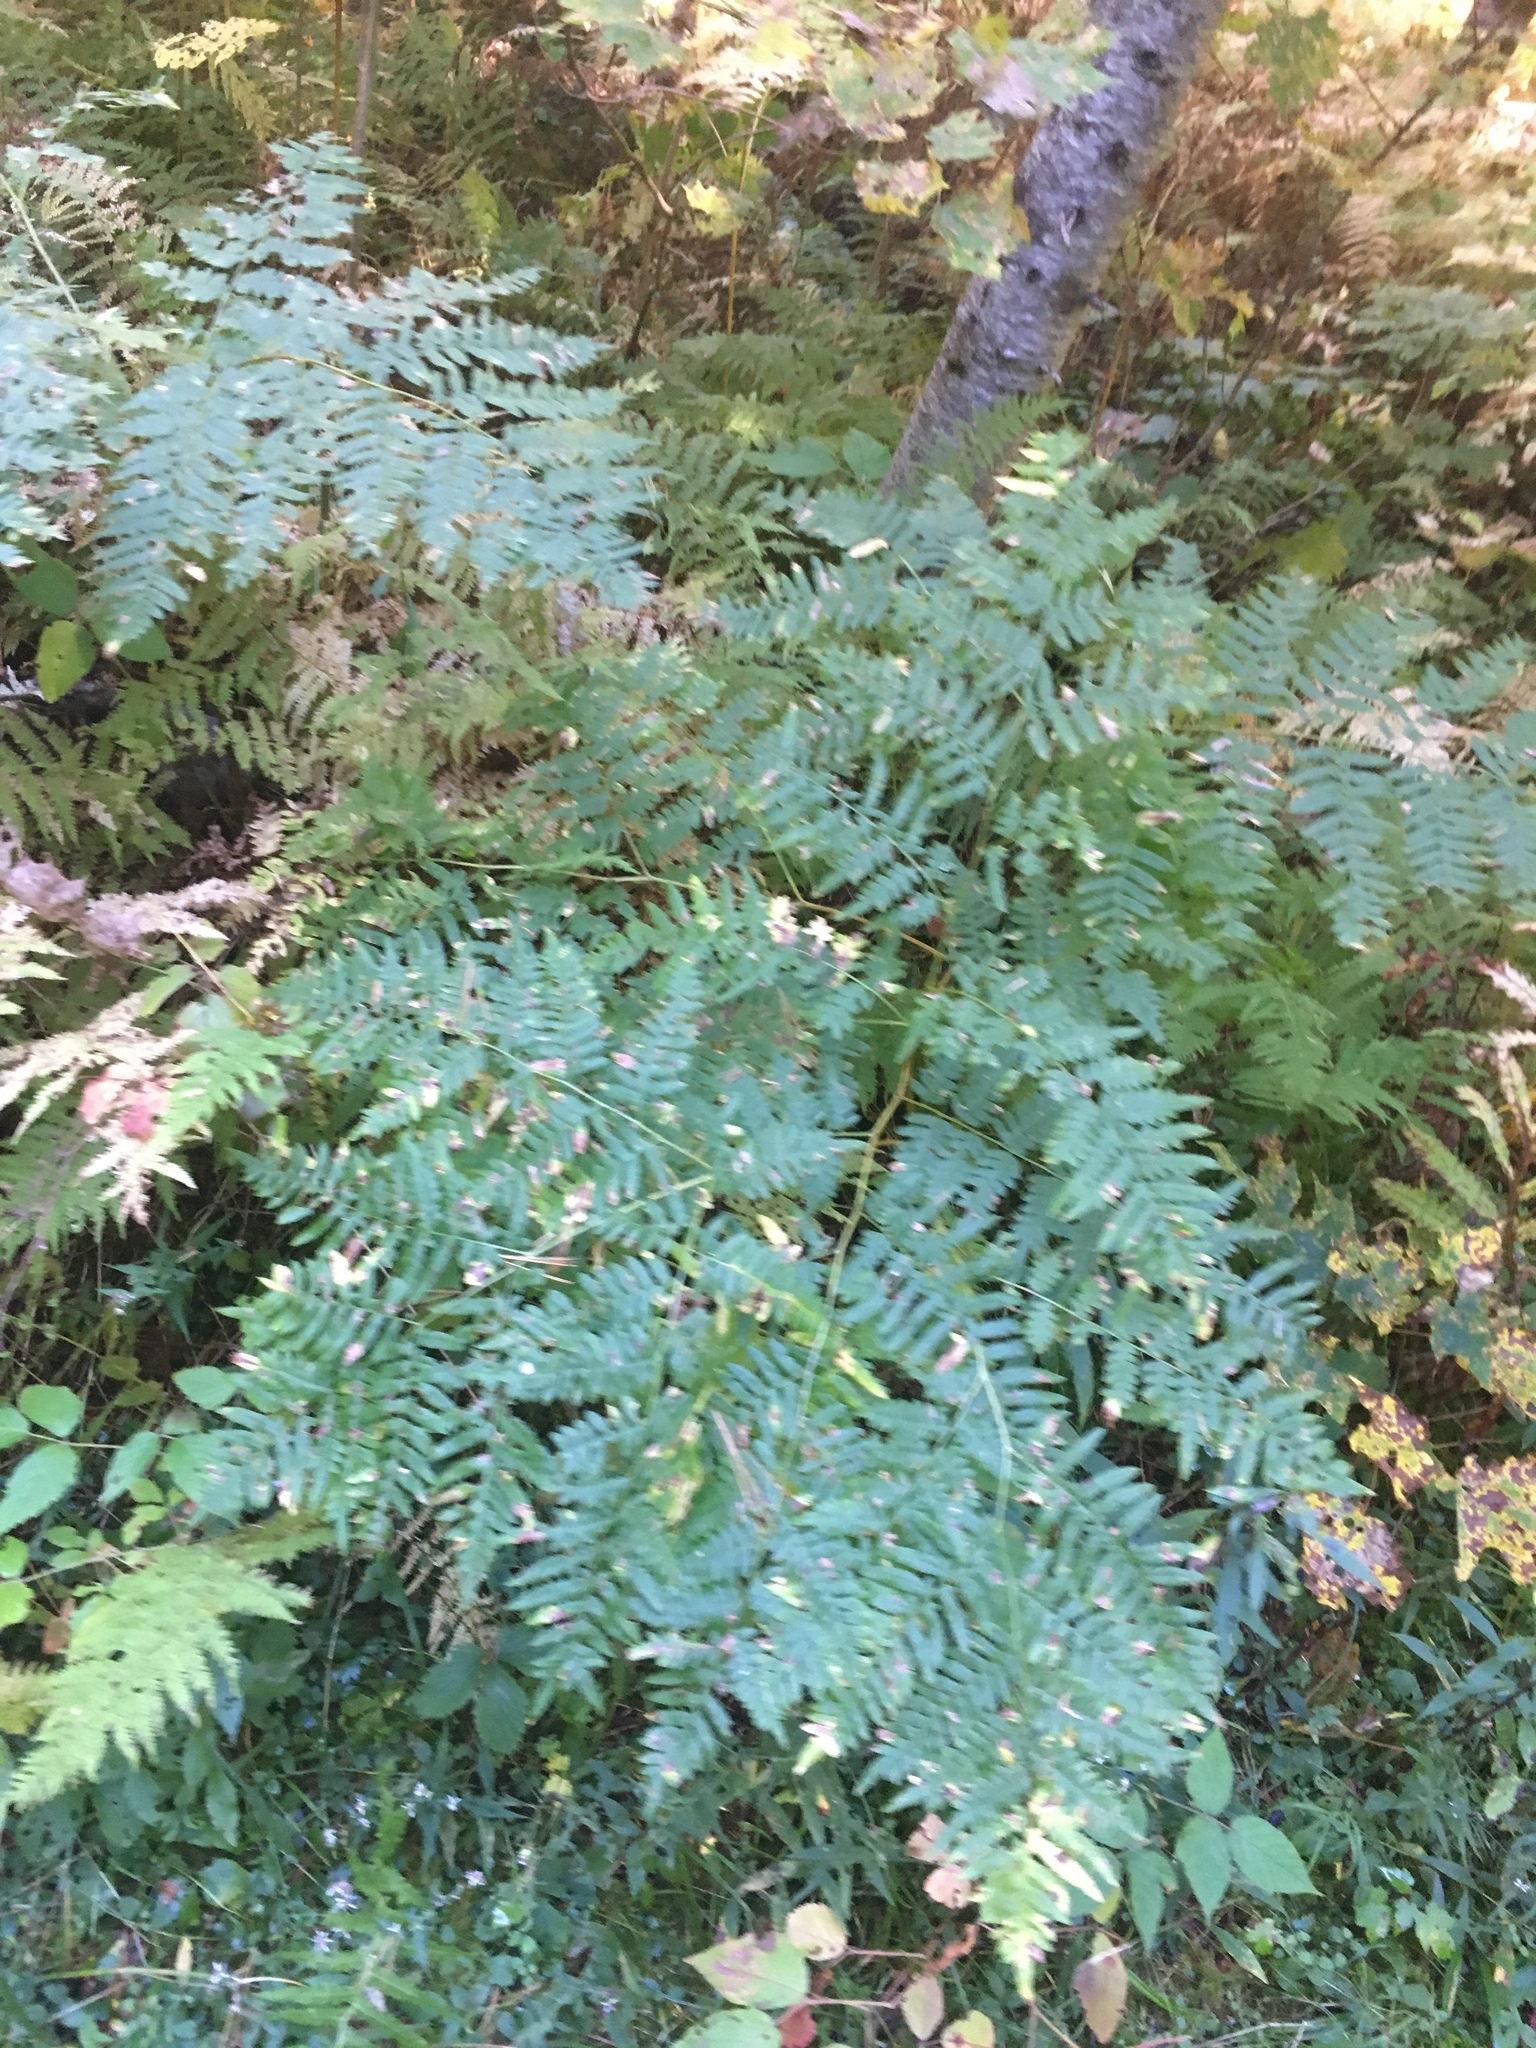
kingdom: Plantae
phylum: Tracheophyta
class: Polypodiopsida
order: Polypodiales
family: Dennstaedtiaceae
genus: Pteridium
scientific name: Pteridium aquilinum
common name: Bracken
